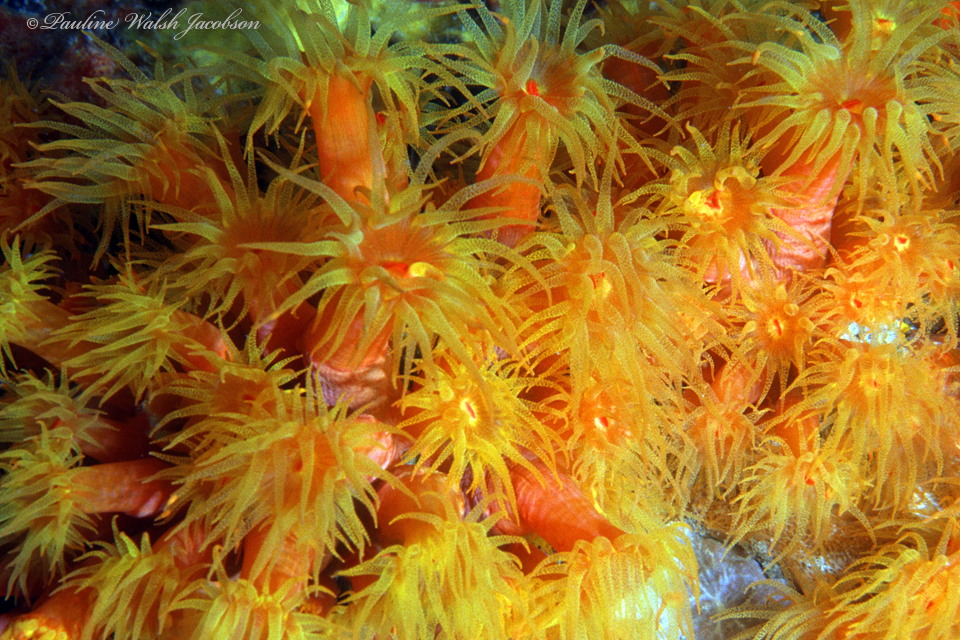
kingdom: Animalia
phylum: Cnidaria
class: Anthozoa
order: Scleractinia
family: Dendrophylliidae
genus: Tubastraea
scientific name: Tubastraea coccinea
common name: Orange cup coral
